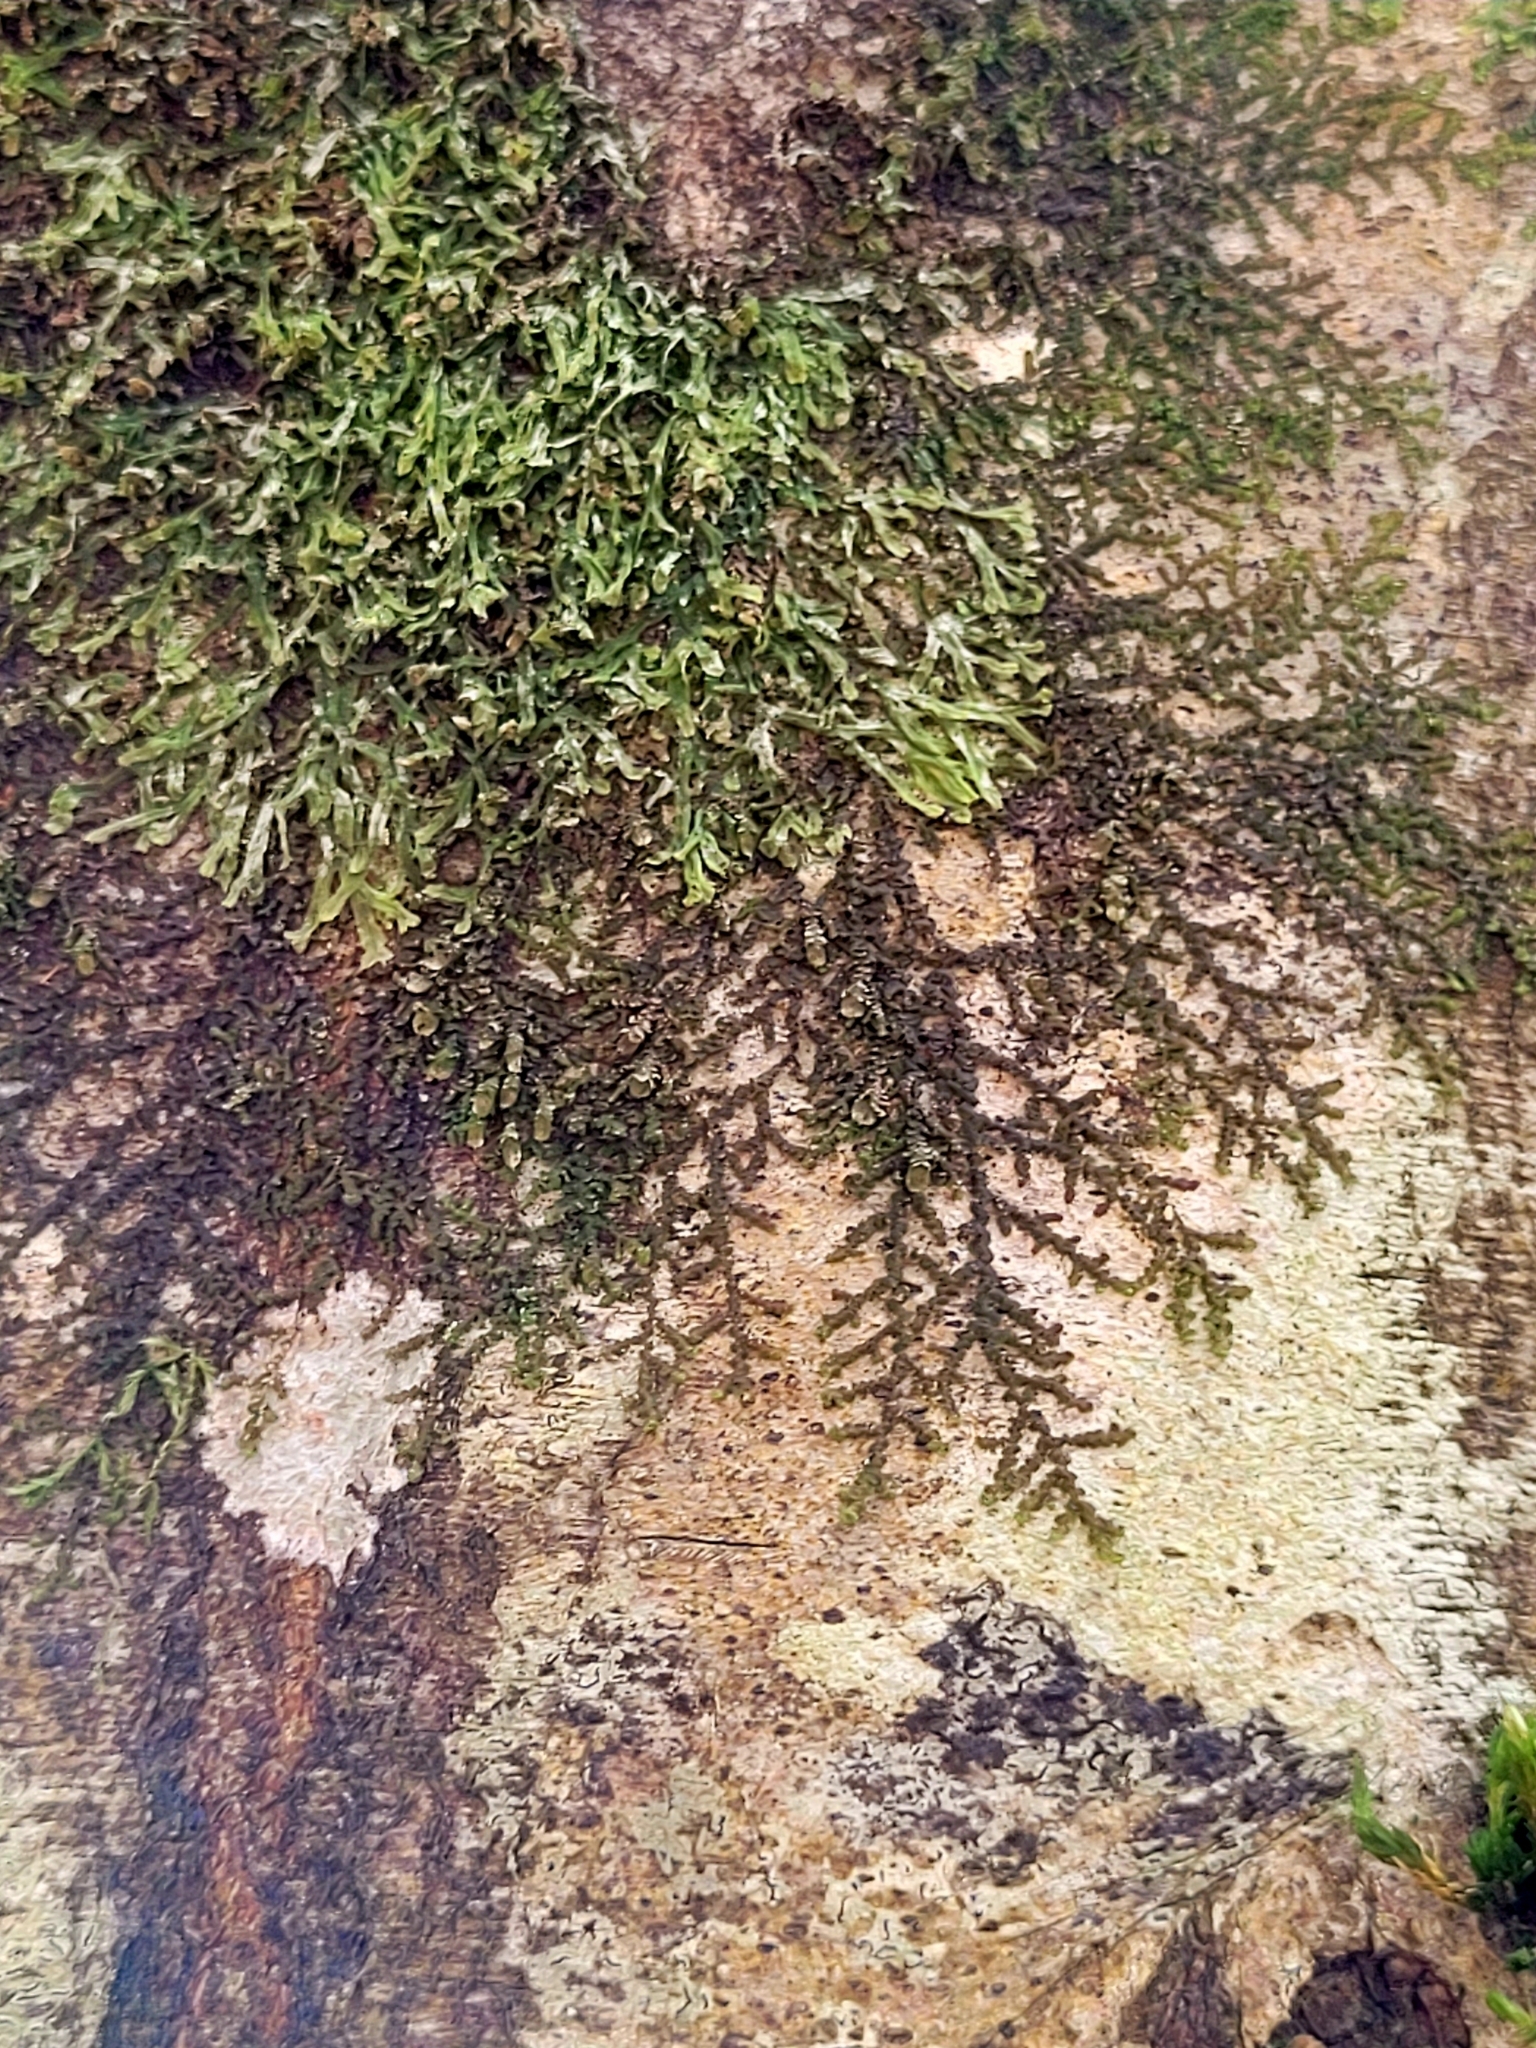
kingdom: Plantae
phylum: Marchantiophyta
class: Jungermanniopsida
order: Porellales
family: Frullaniaceae
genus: Frullania
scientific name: Frullania dilatata
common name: Dilated scalewort
